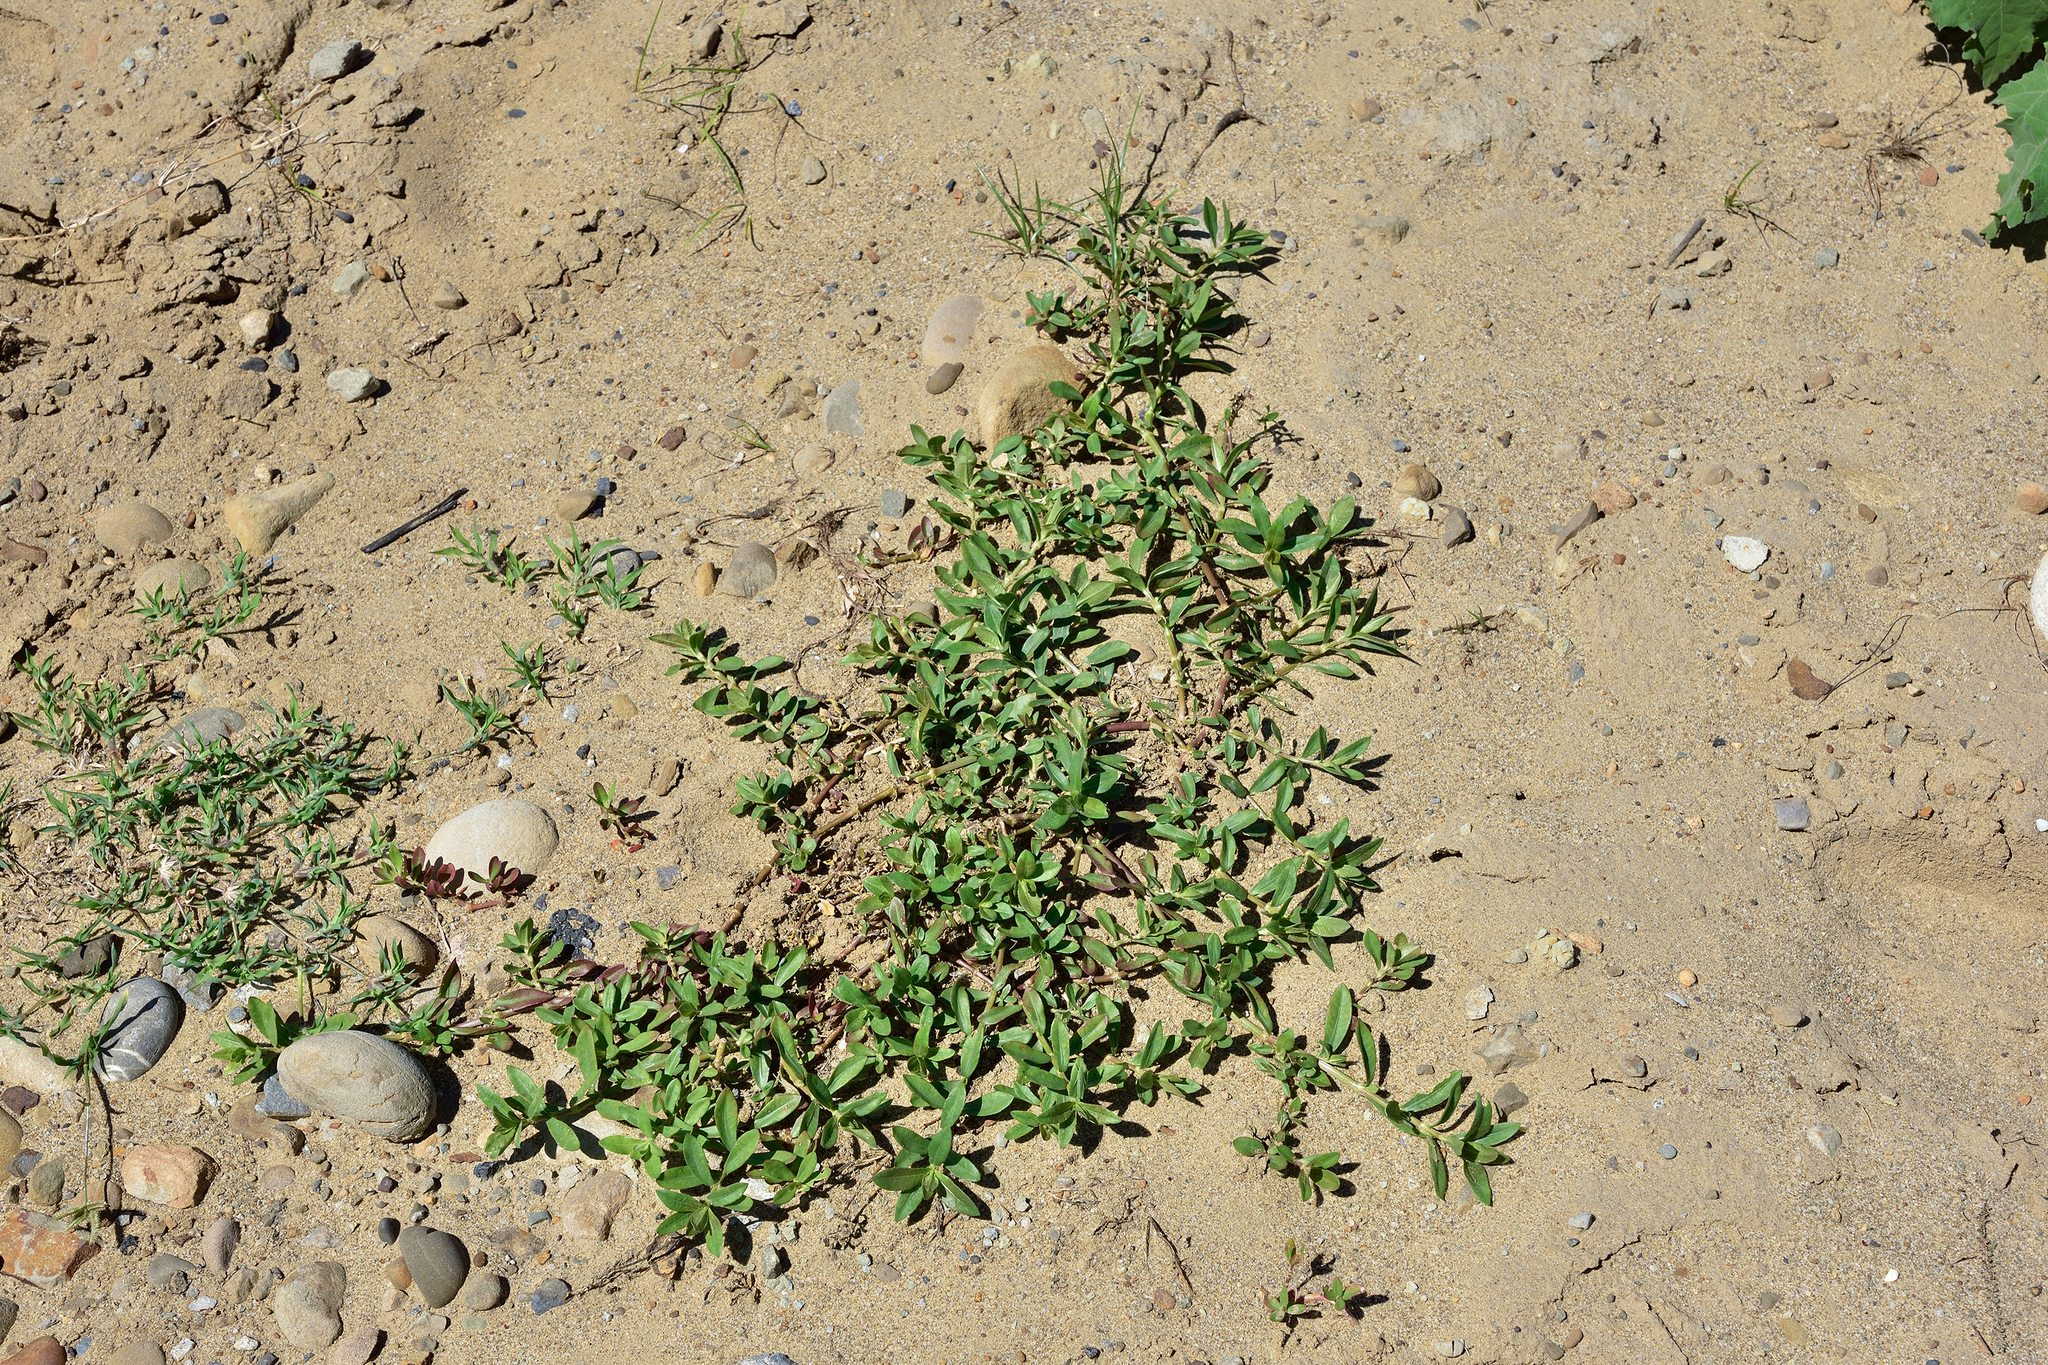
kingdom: Plantae
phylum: Tracheophyta
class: Magnoliopsida
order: Caryophyllales
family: Amaranthaceae
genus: Alternanthera
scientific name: Alternanthera philoxeroides
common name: Alligatorweed
